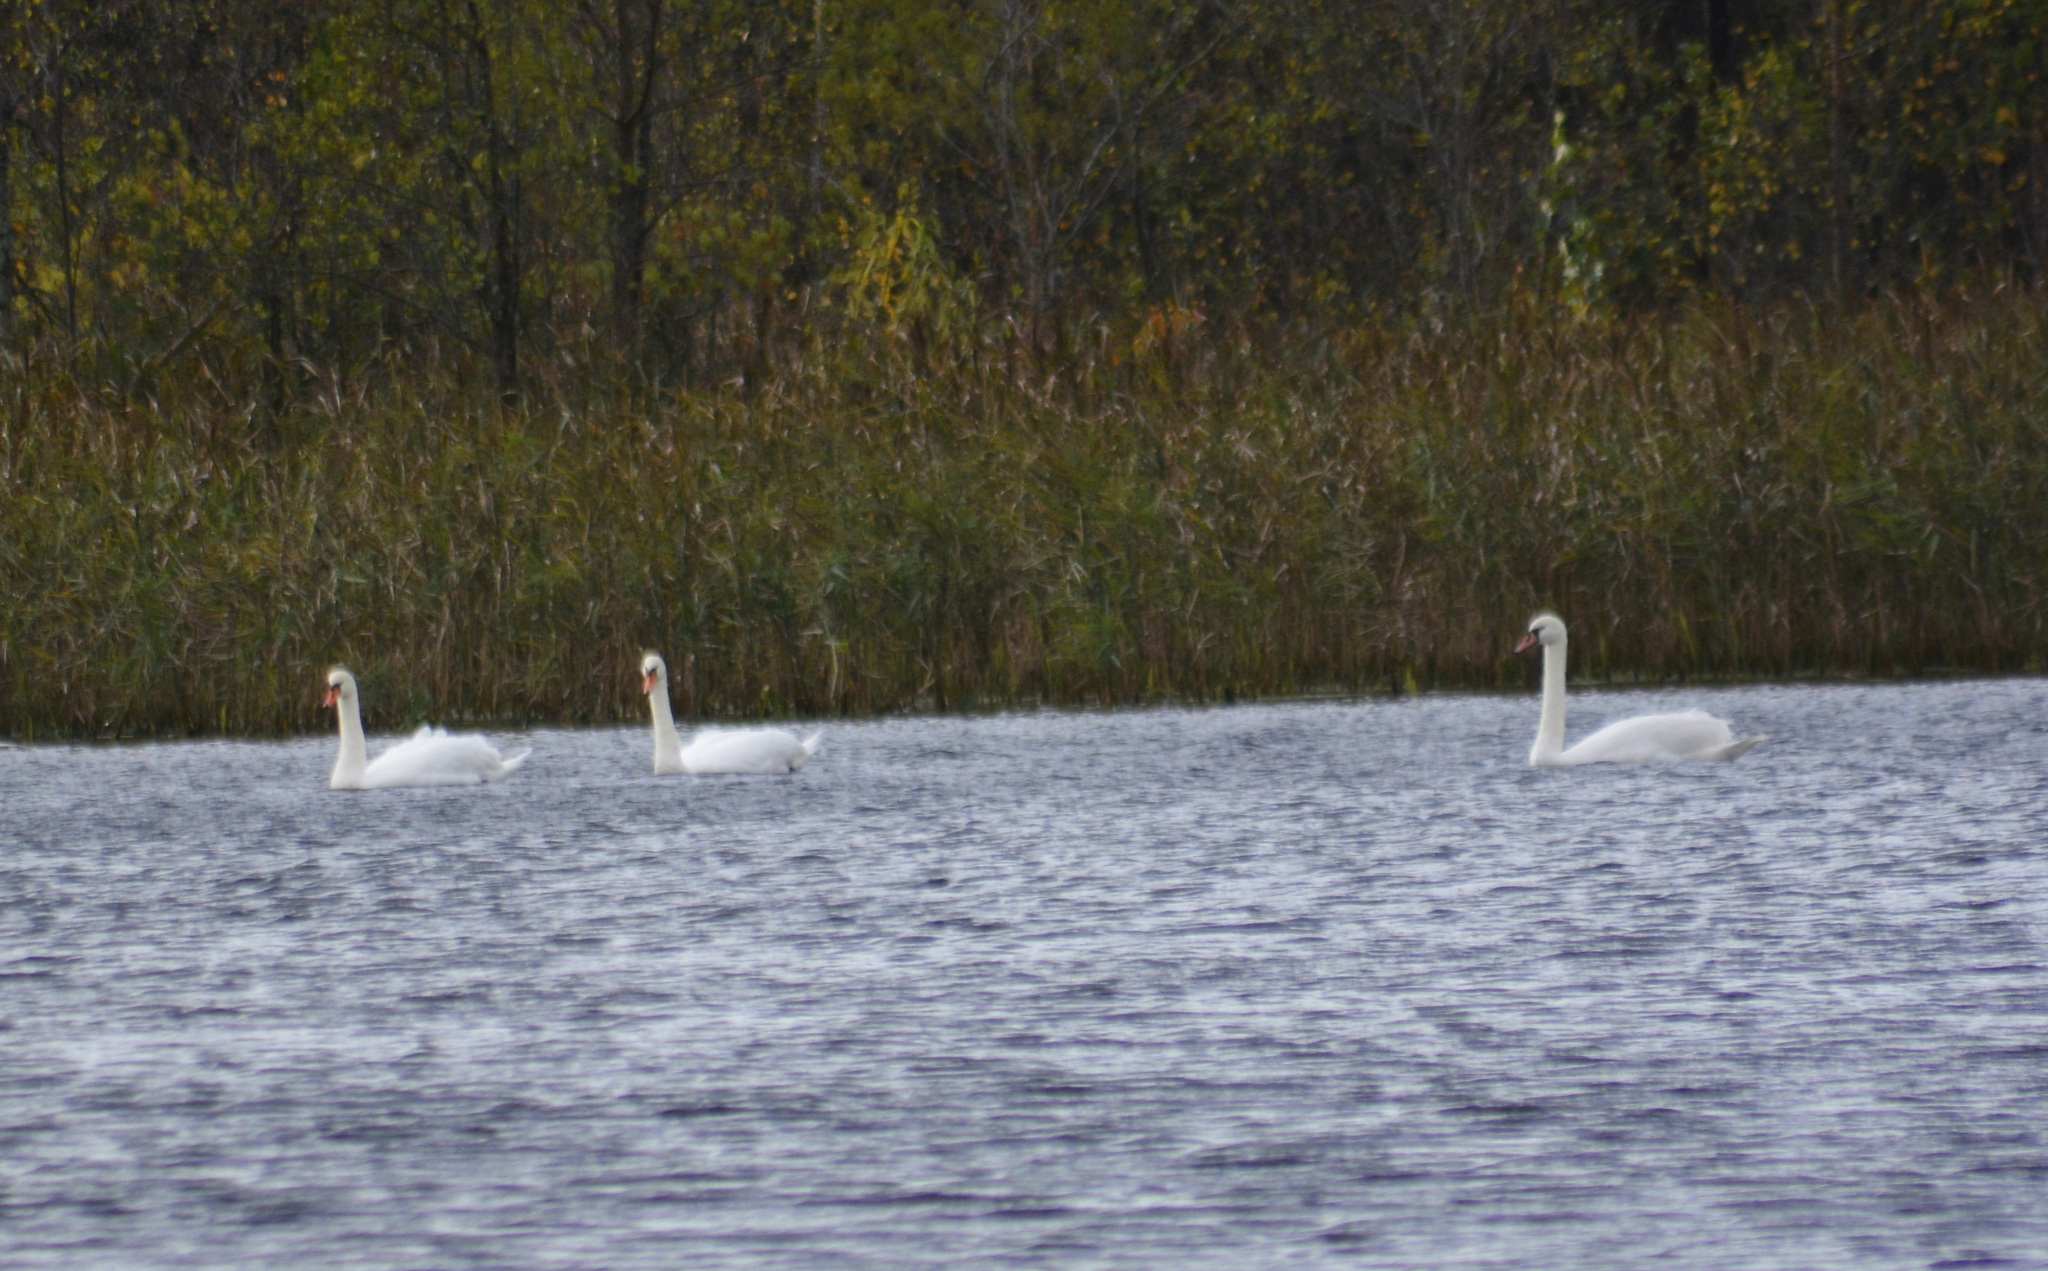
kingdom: Animalia
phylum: Chordata
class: Aves
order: Anseriformes
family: Anatidae
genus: Cygnus
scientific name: Cygnus olor
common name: Mute swan
